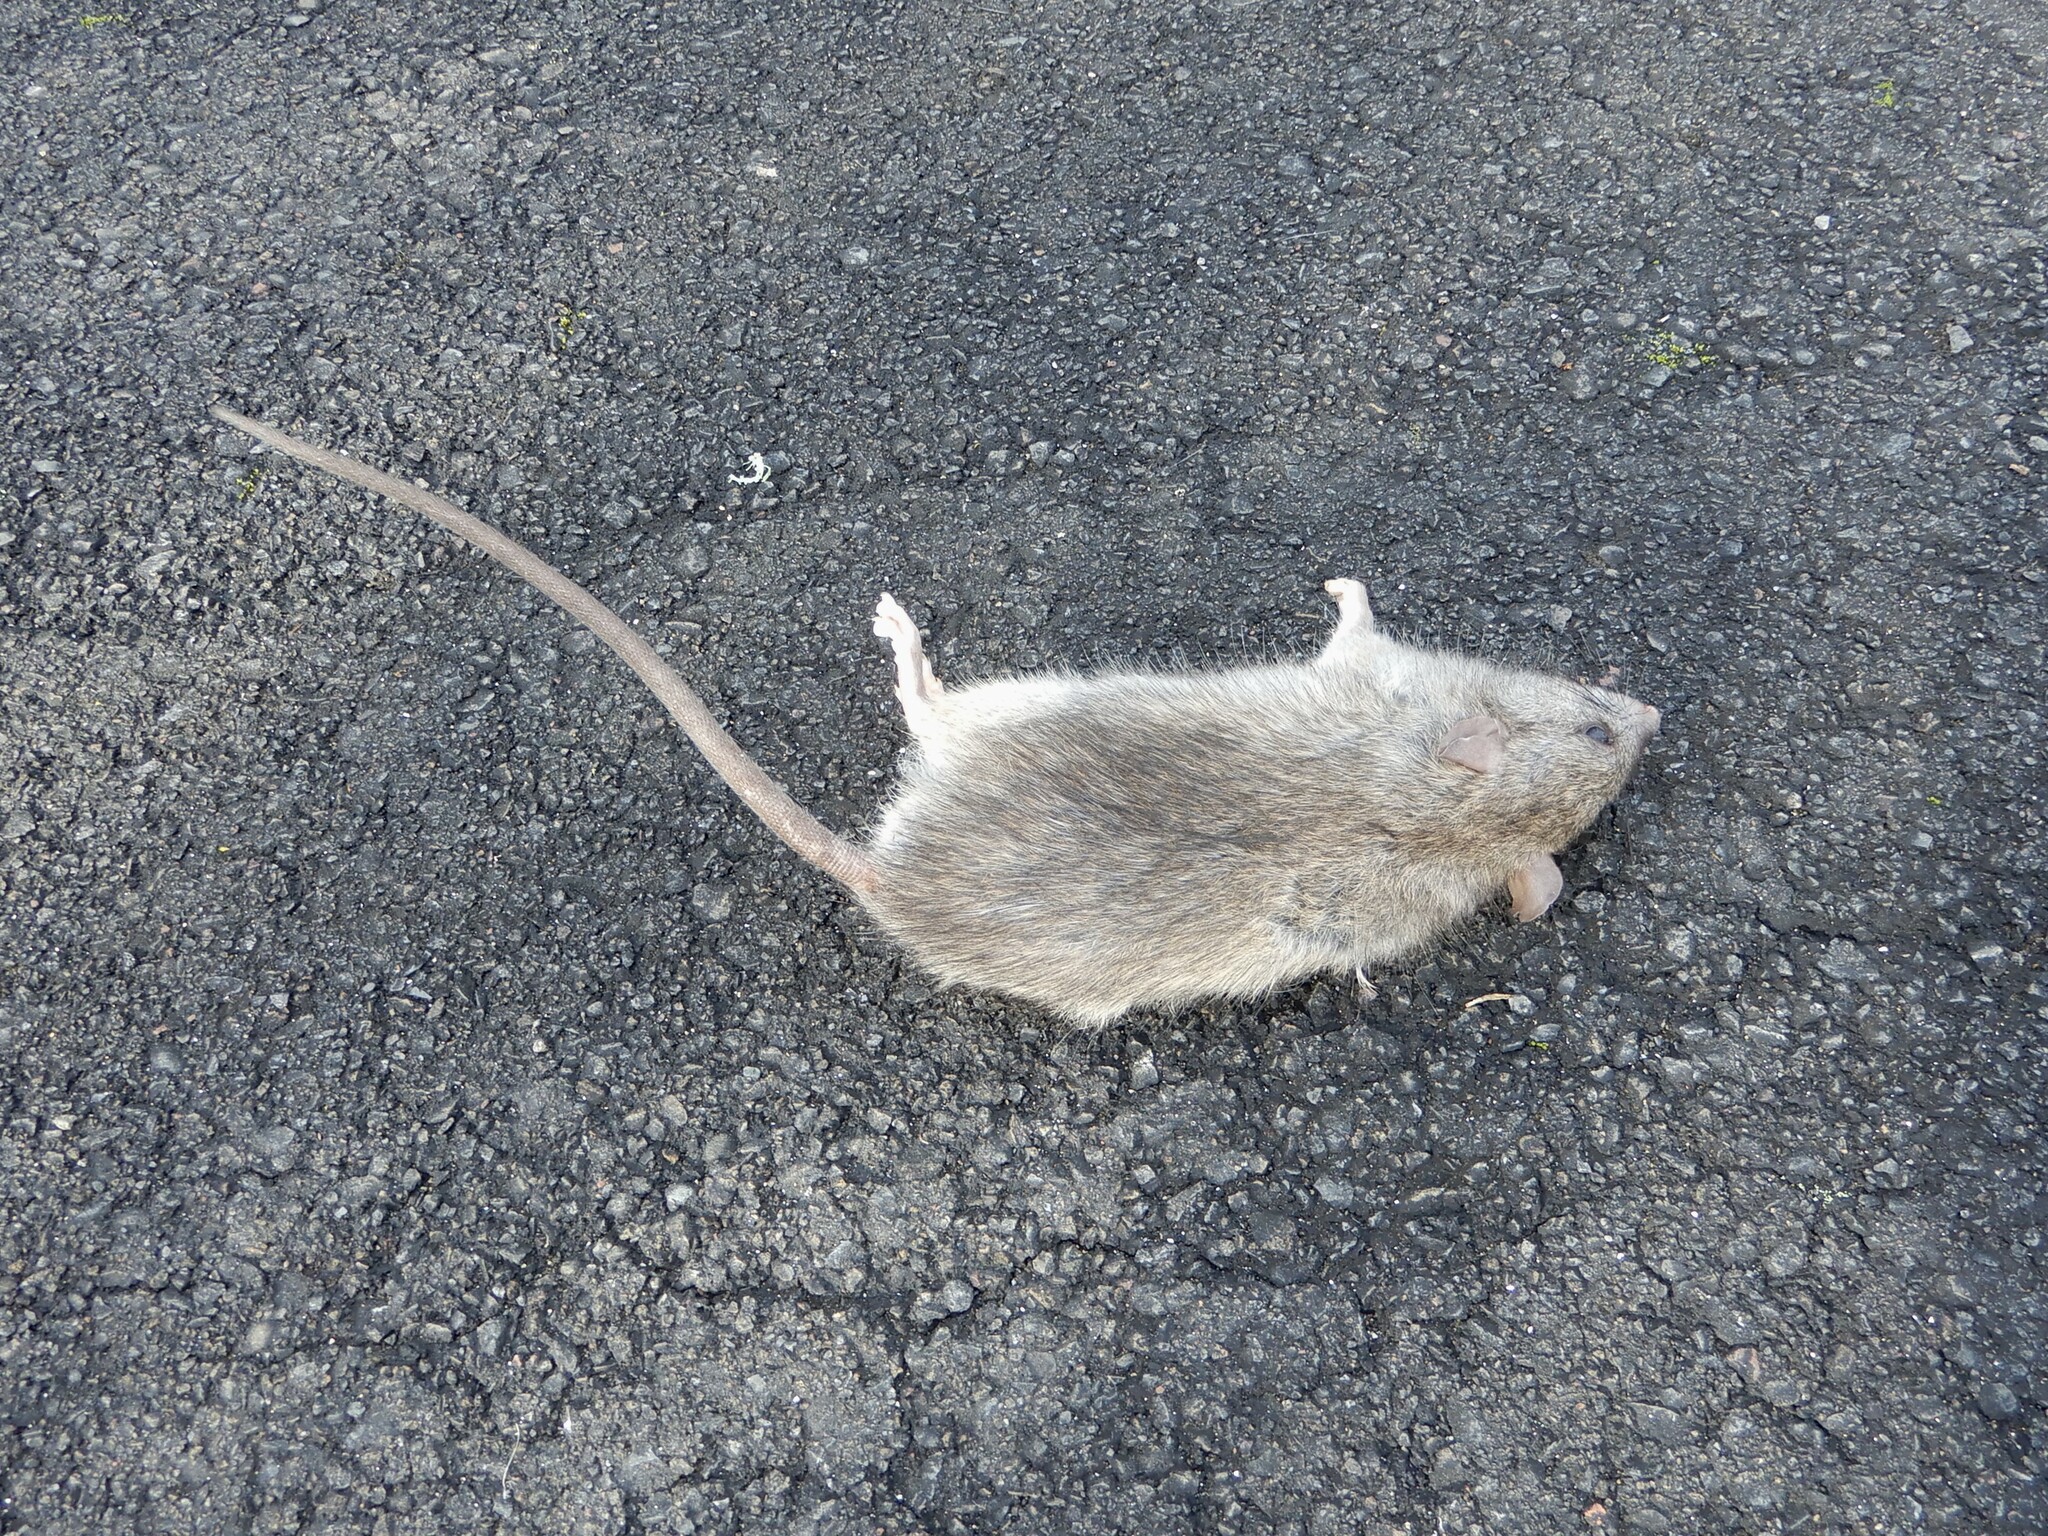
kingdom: Animalia
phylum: Chordata
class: Mammalia
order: Rodentia
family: Muridae
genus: Rattus
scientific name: Rattus rattus
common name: Black rat
